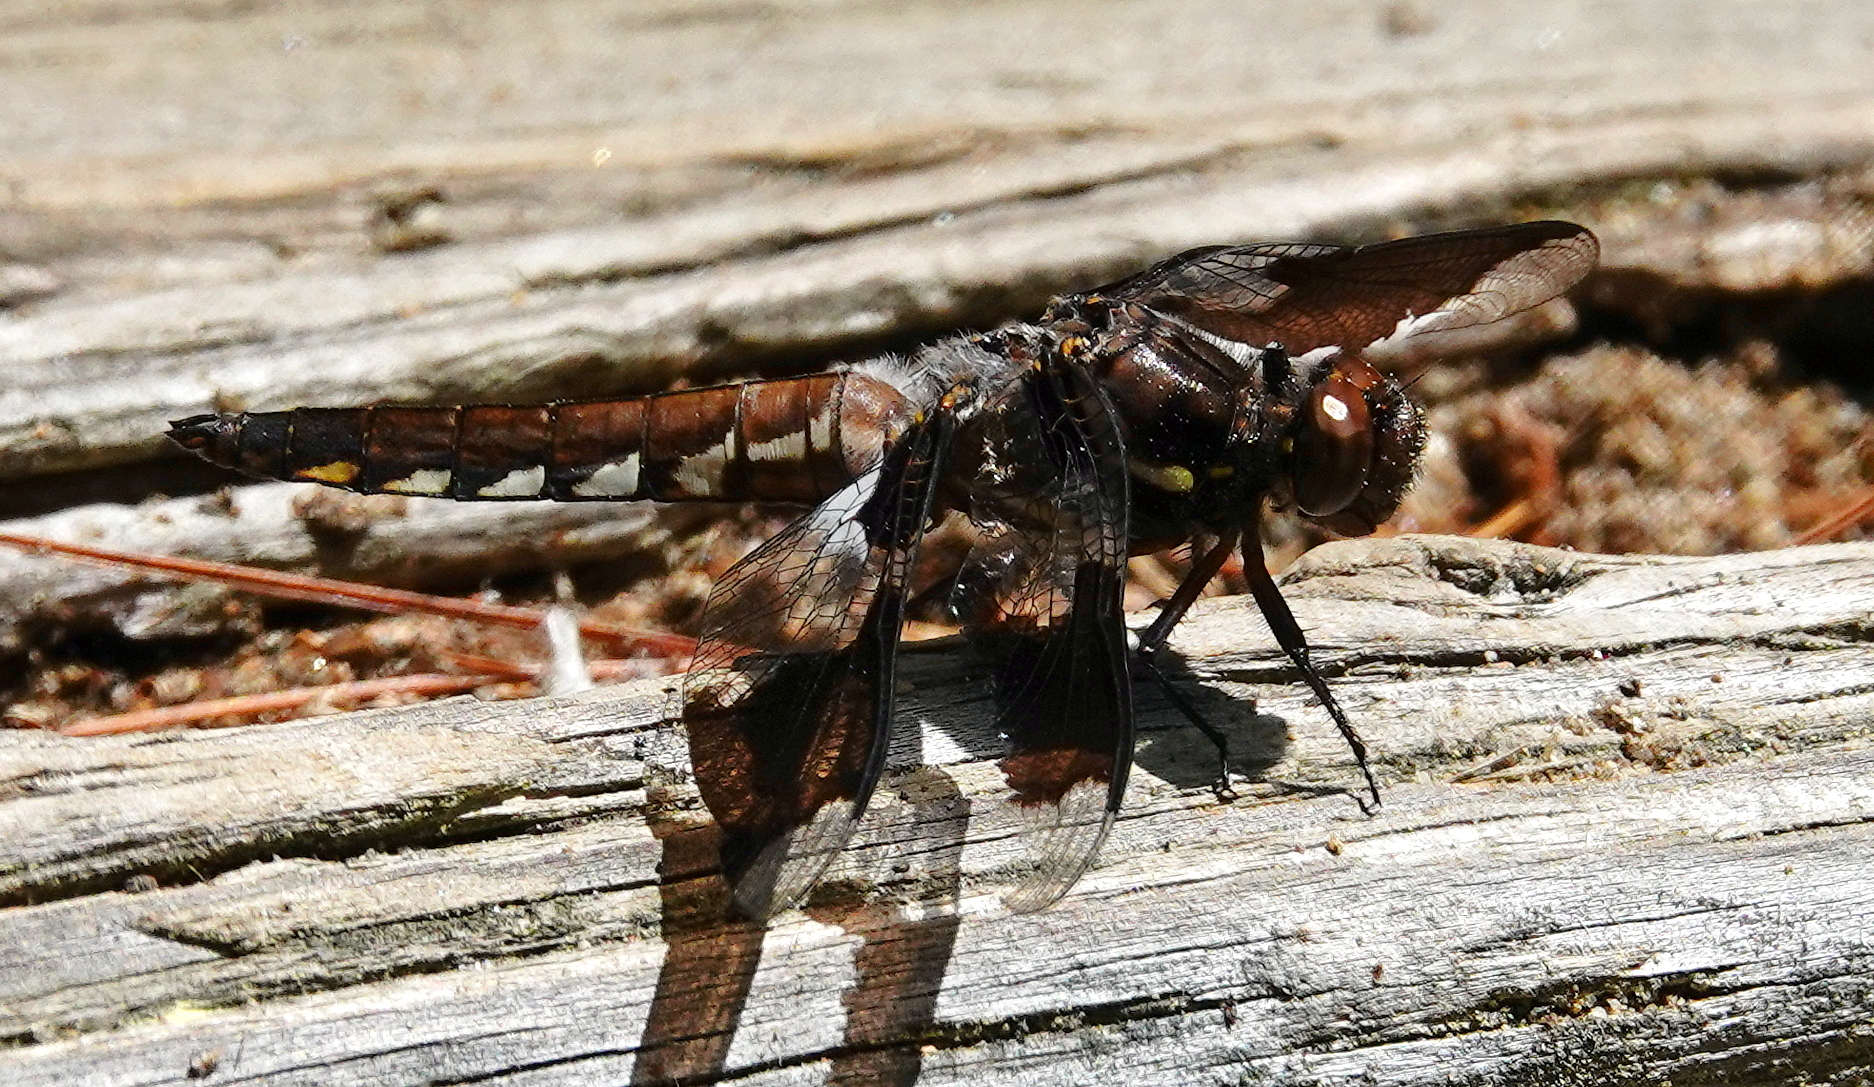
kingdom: Animalia
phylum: Arthropoda
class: Insecta
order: Odonata
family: Libellulidae
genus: Plathemis
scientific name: Plathemis lydia
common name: Common whitetail
